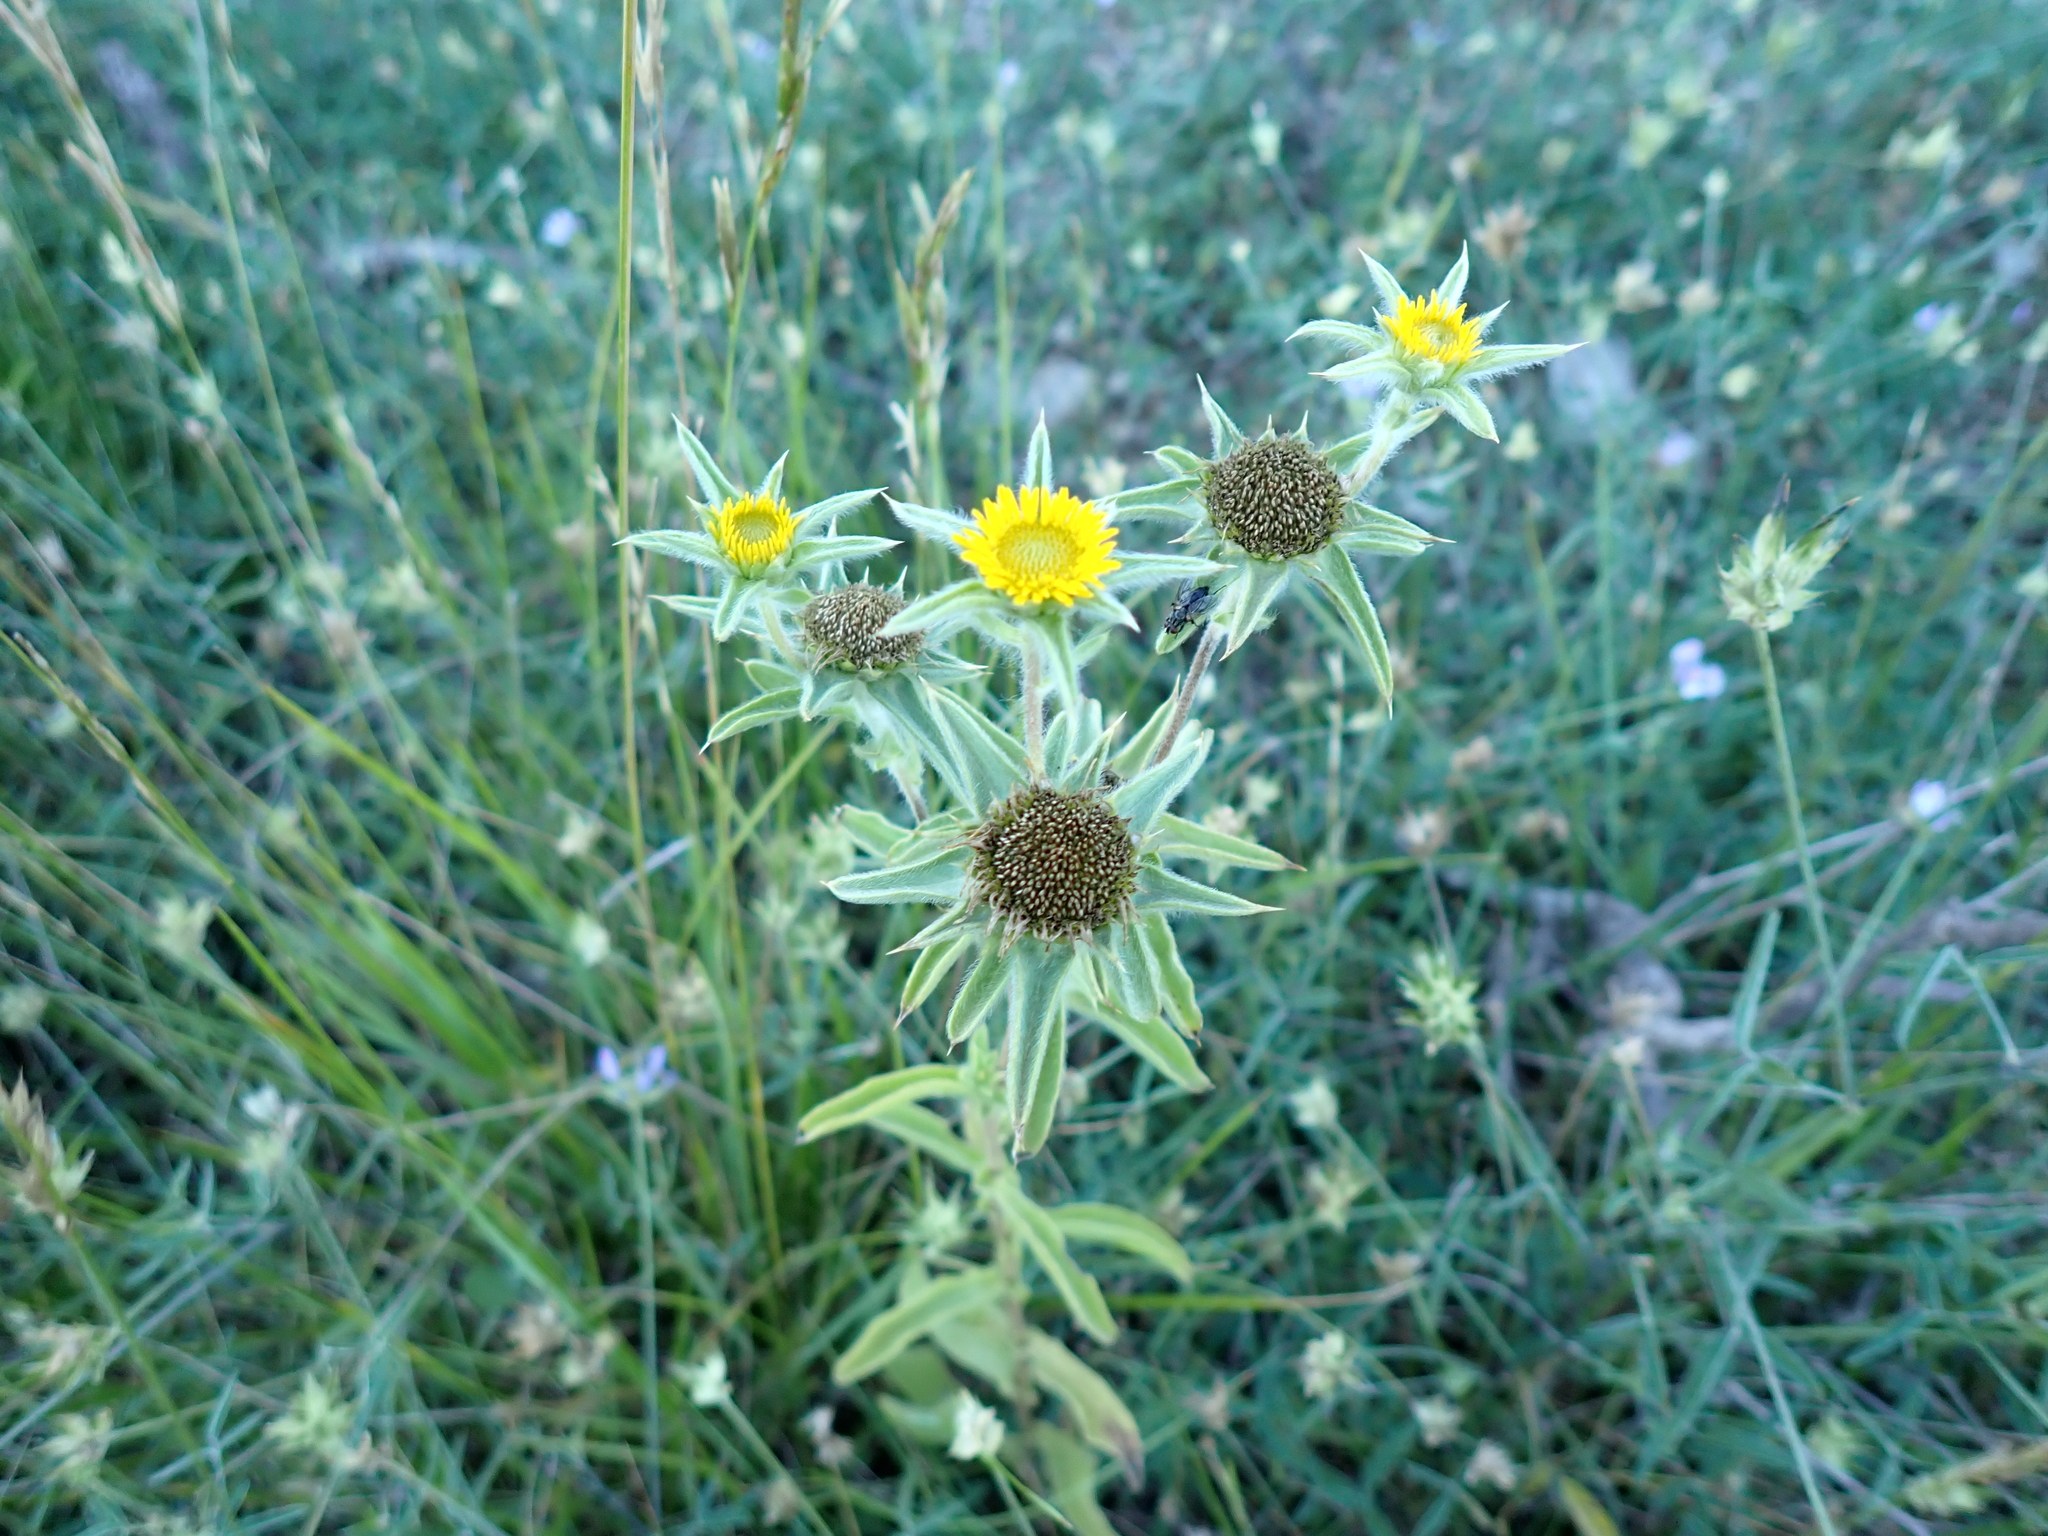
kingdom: Plantae
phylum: Tracheophyta
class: Magnoliopsida
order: Asterales
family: Asteraceae
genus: Pallenis
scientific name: Pallenis spinosa
